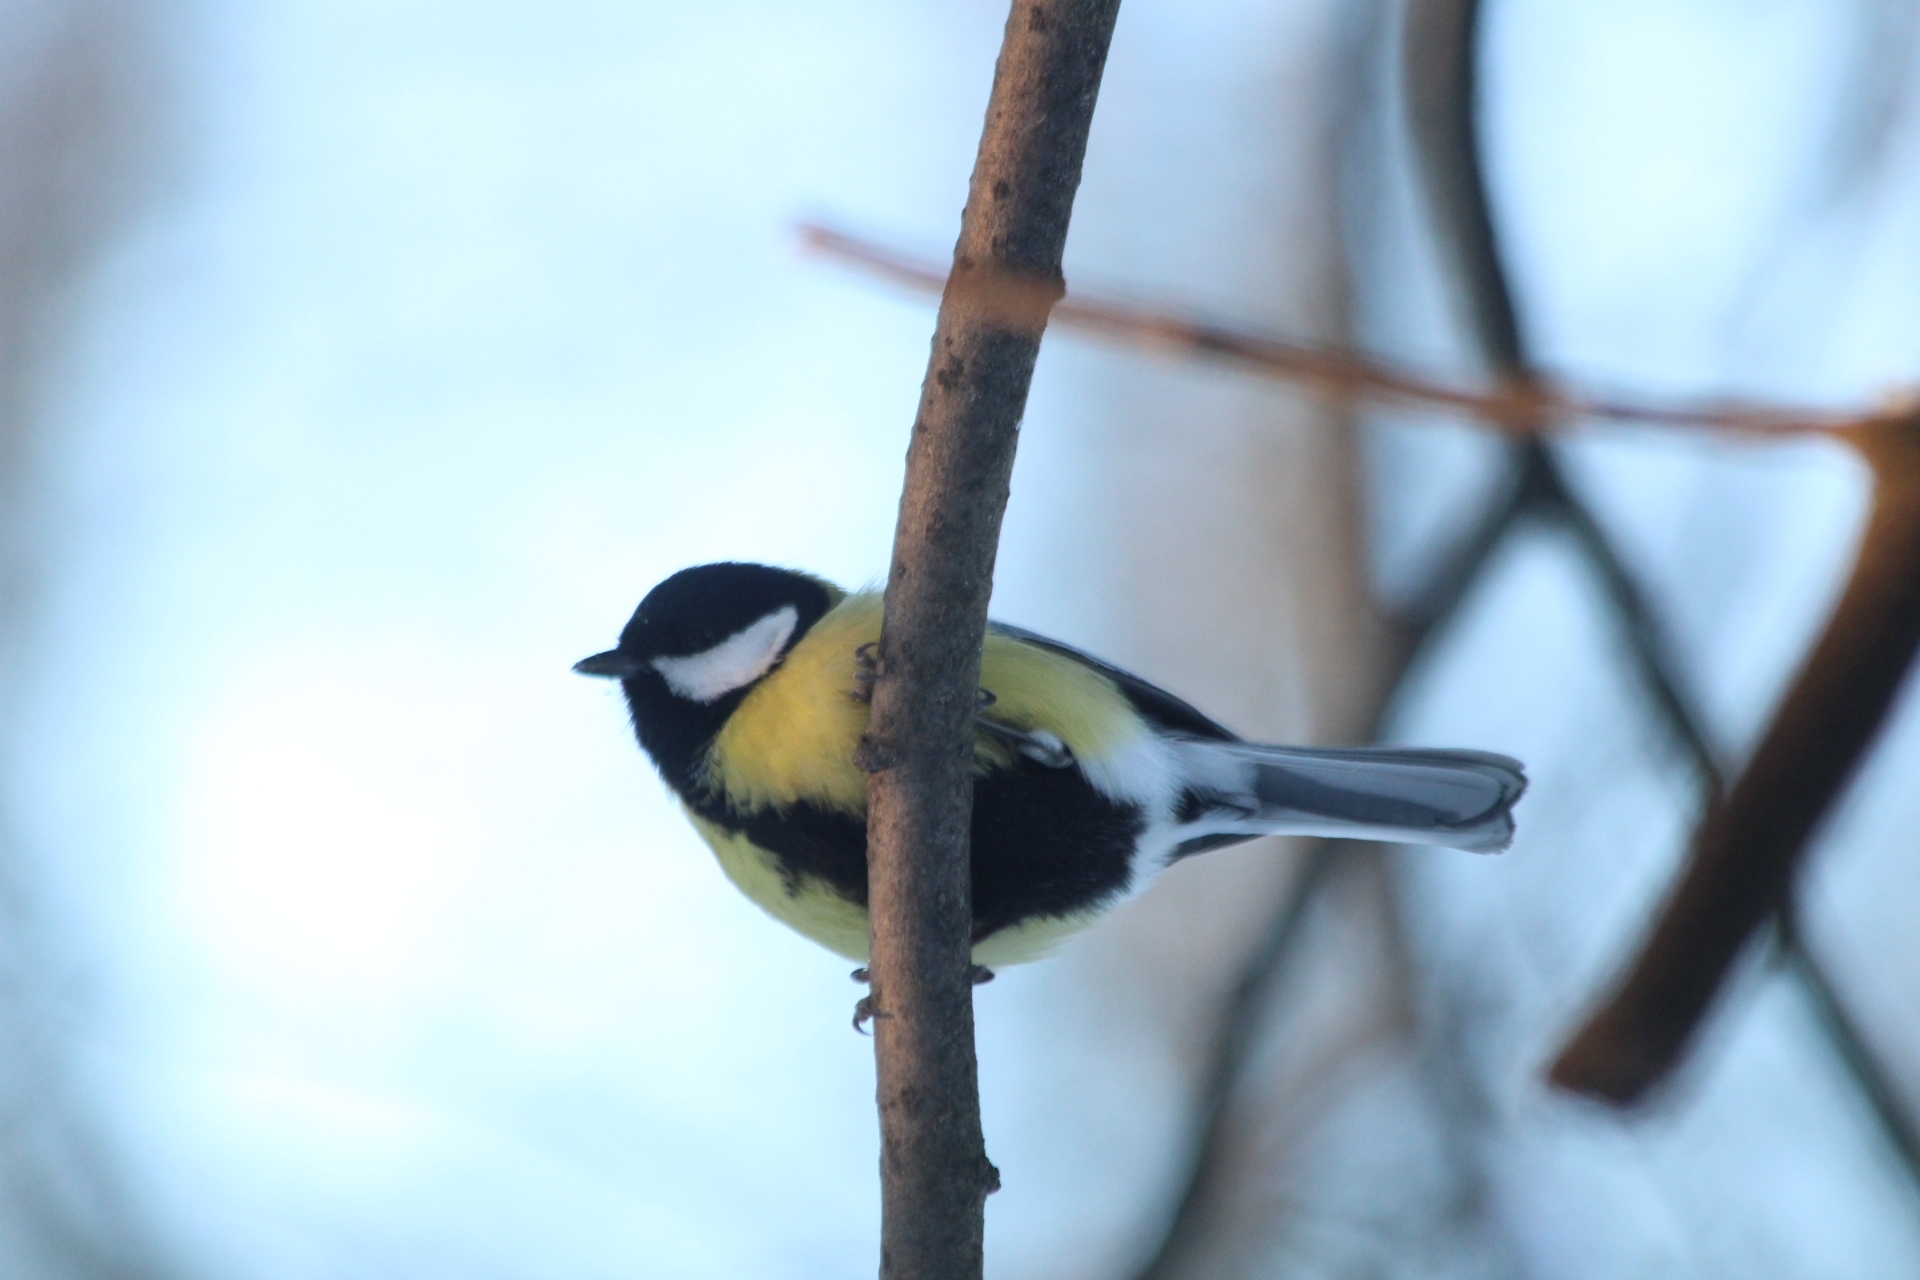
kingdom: Animalia
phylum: Chordata
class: Aves
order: Passeriformes
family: Paridae
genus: Parus
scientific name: Parus major
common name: Great tit
